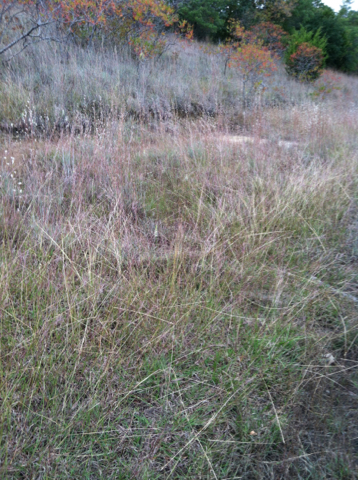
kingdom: Plantae
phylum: Tracheophyta
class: Liliopsida
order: Asparagales
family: Orchidaceae
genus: Spiranthes
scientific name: Spiranthes magnicamporum
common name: Great plains ladies'-tresses
